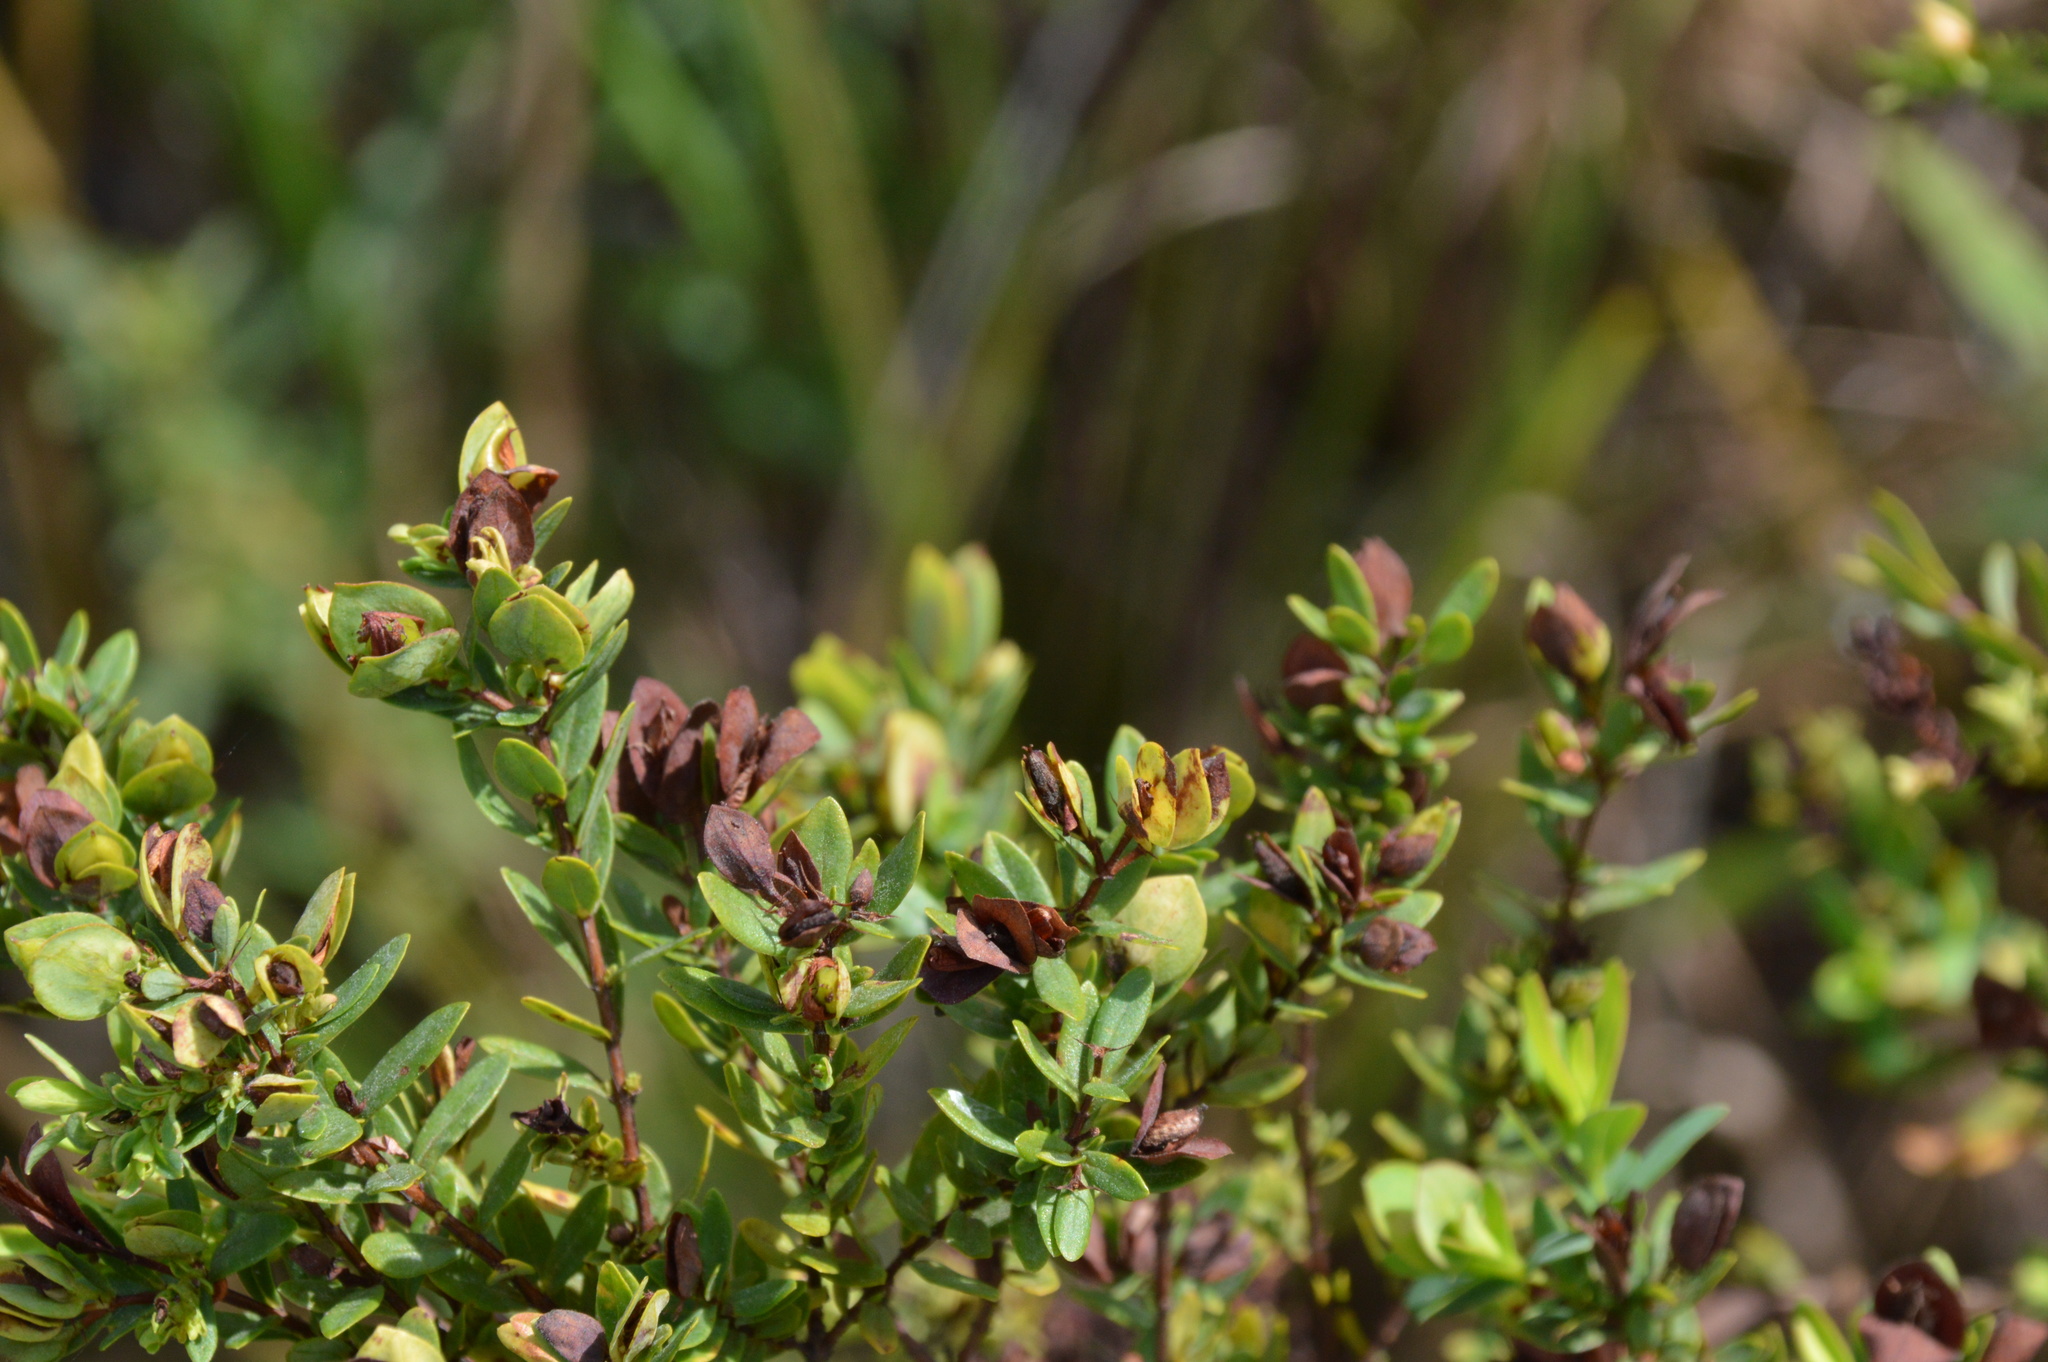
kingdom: Plantae
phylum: Tracheophyta
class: Magnoliopsida
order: Malpighiales
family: Hypericaceae
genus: Hypericum
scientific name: Hypericum hypericoides
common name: St. andrew's cross
